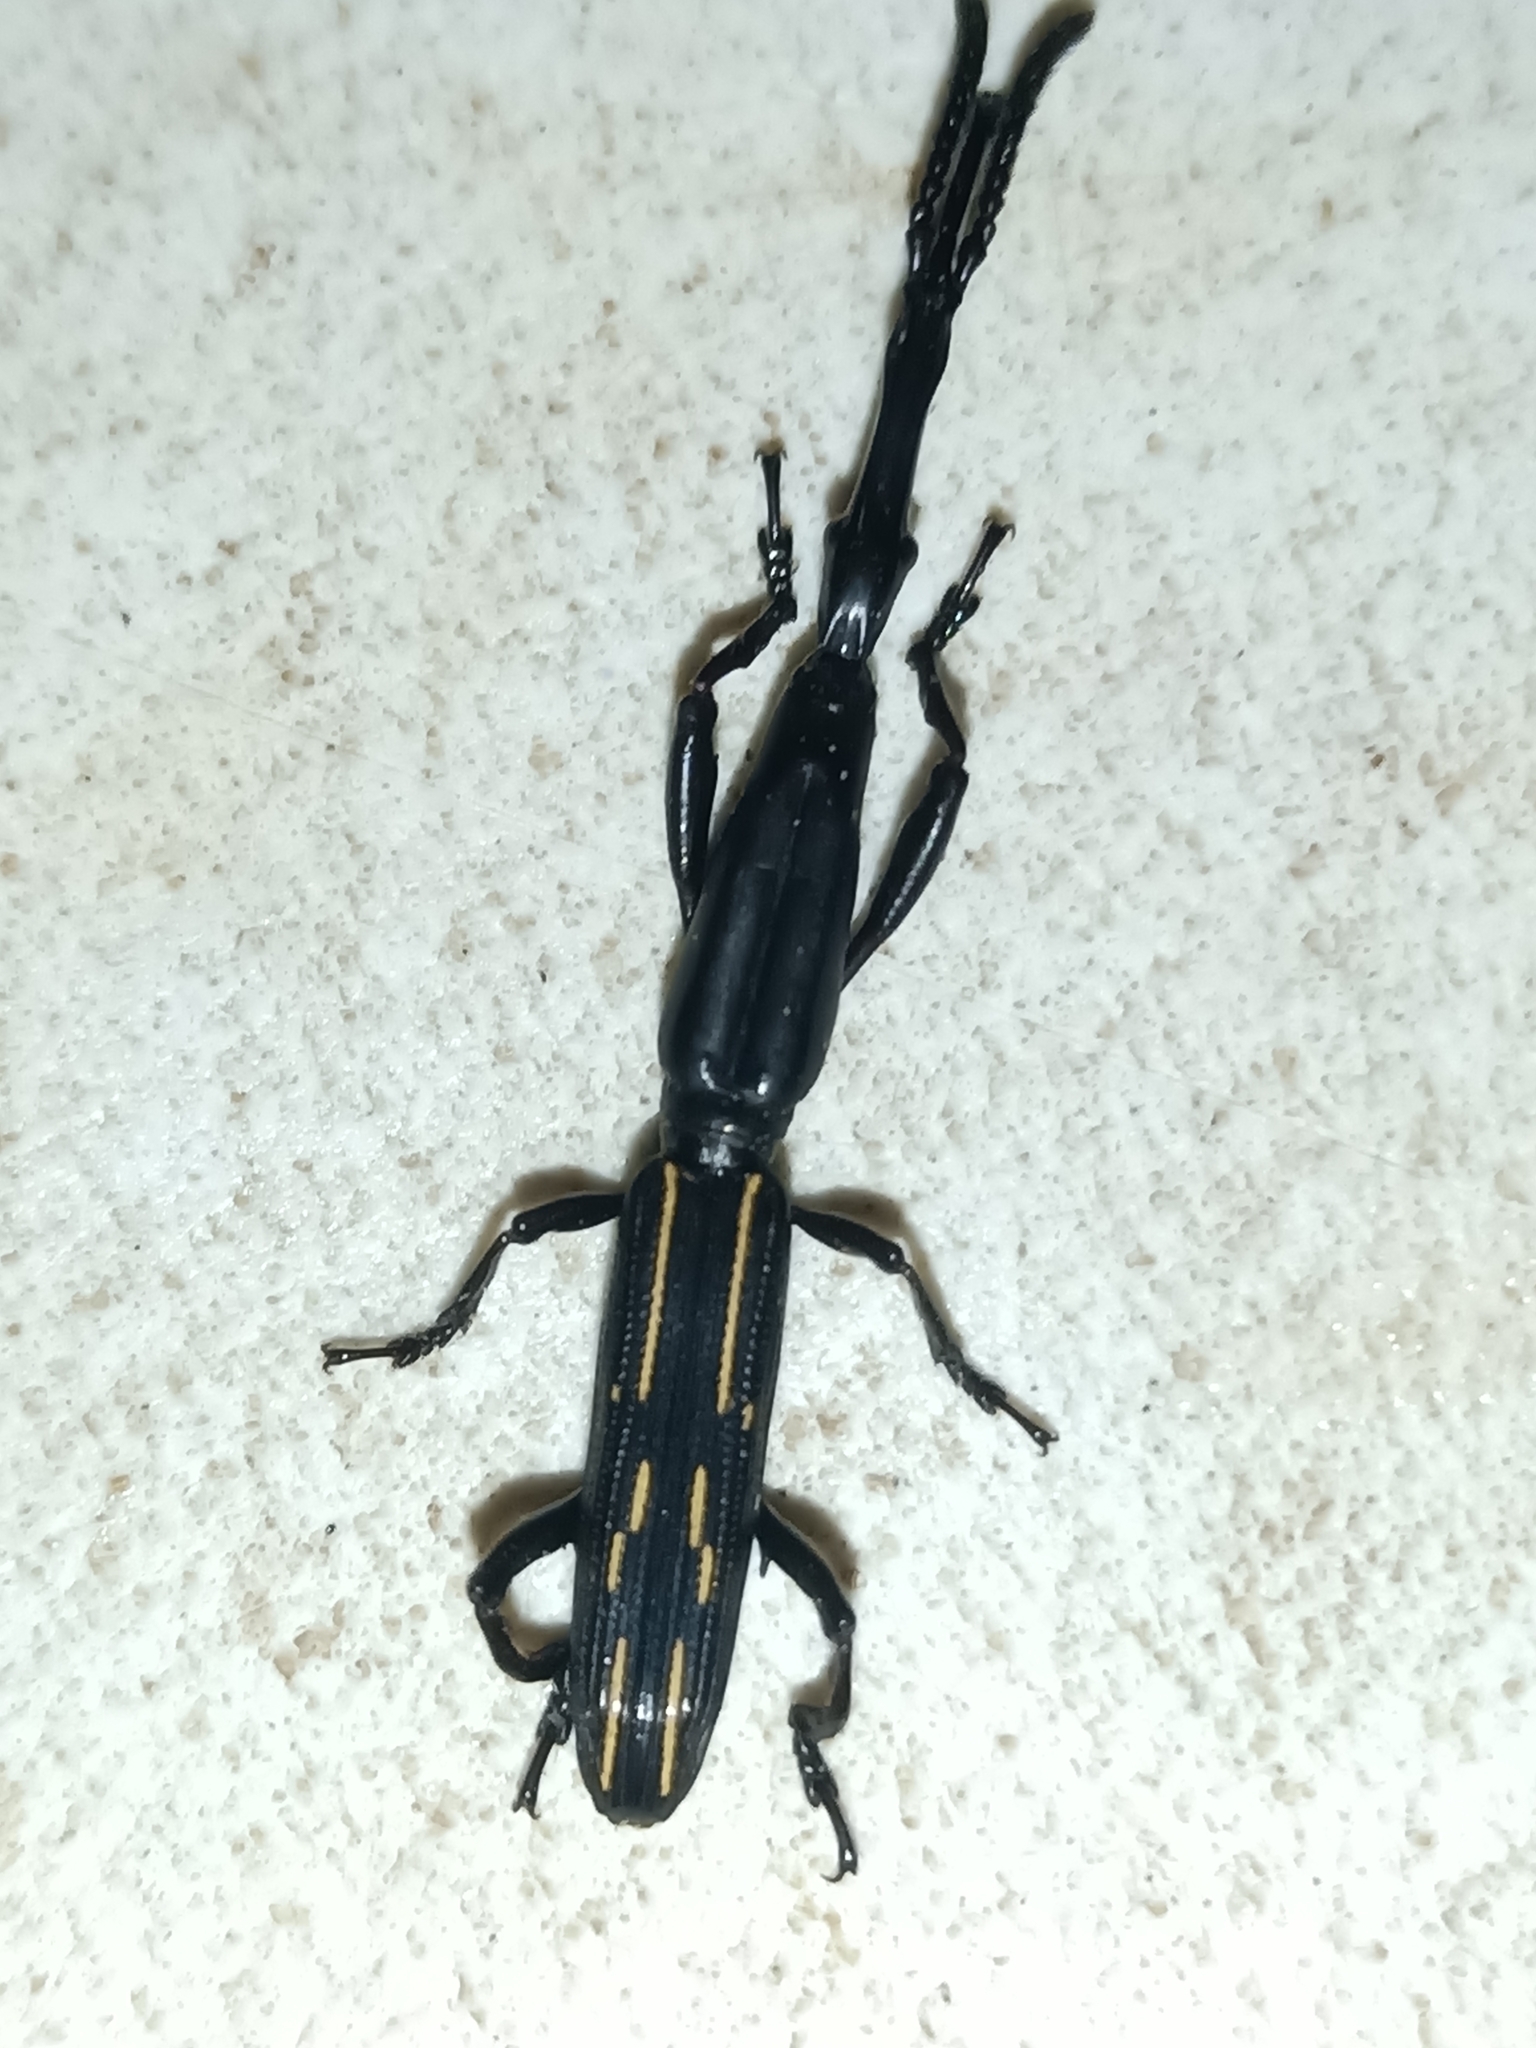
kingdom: Animalia
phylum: Arthropoda
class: Insecta
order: Coleoptera
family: Brentidae
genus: Brentus
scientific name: Brentus cylindrus
